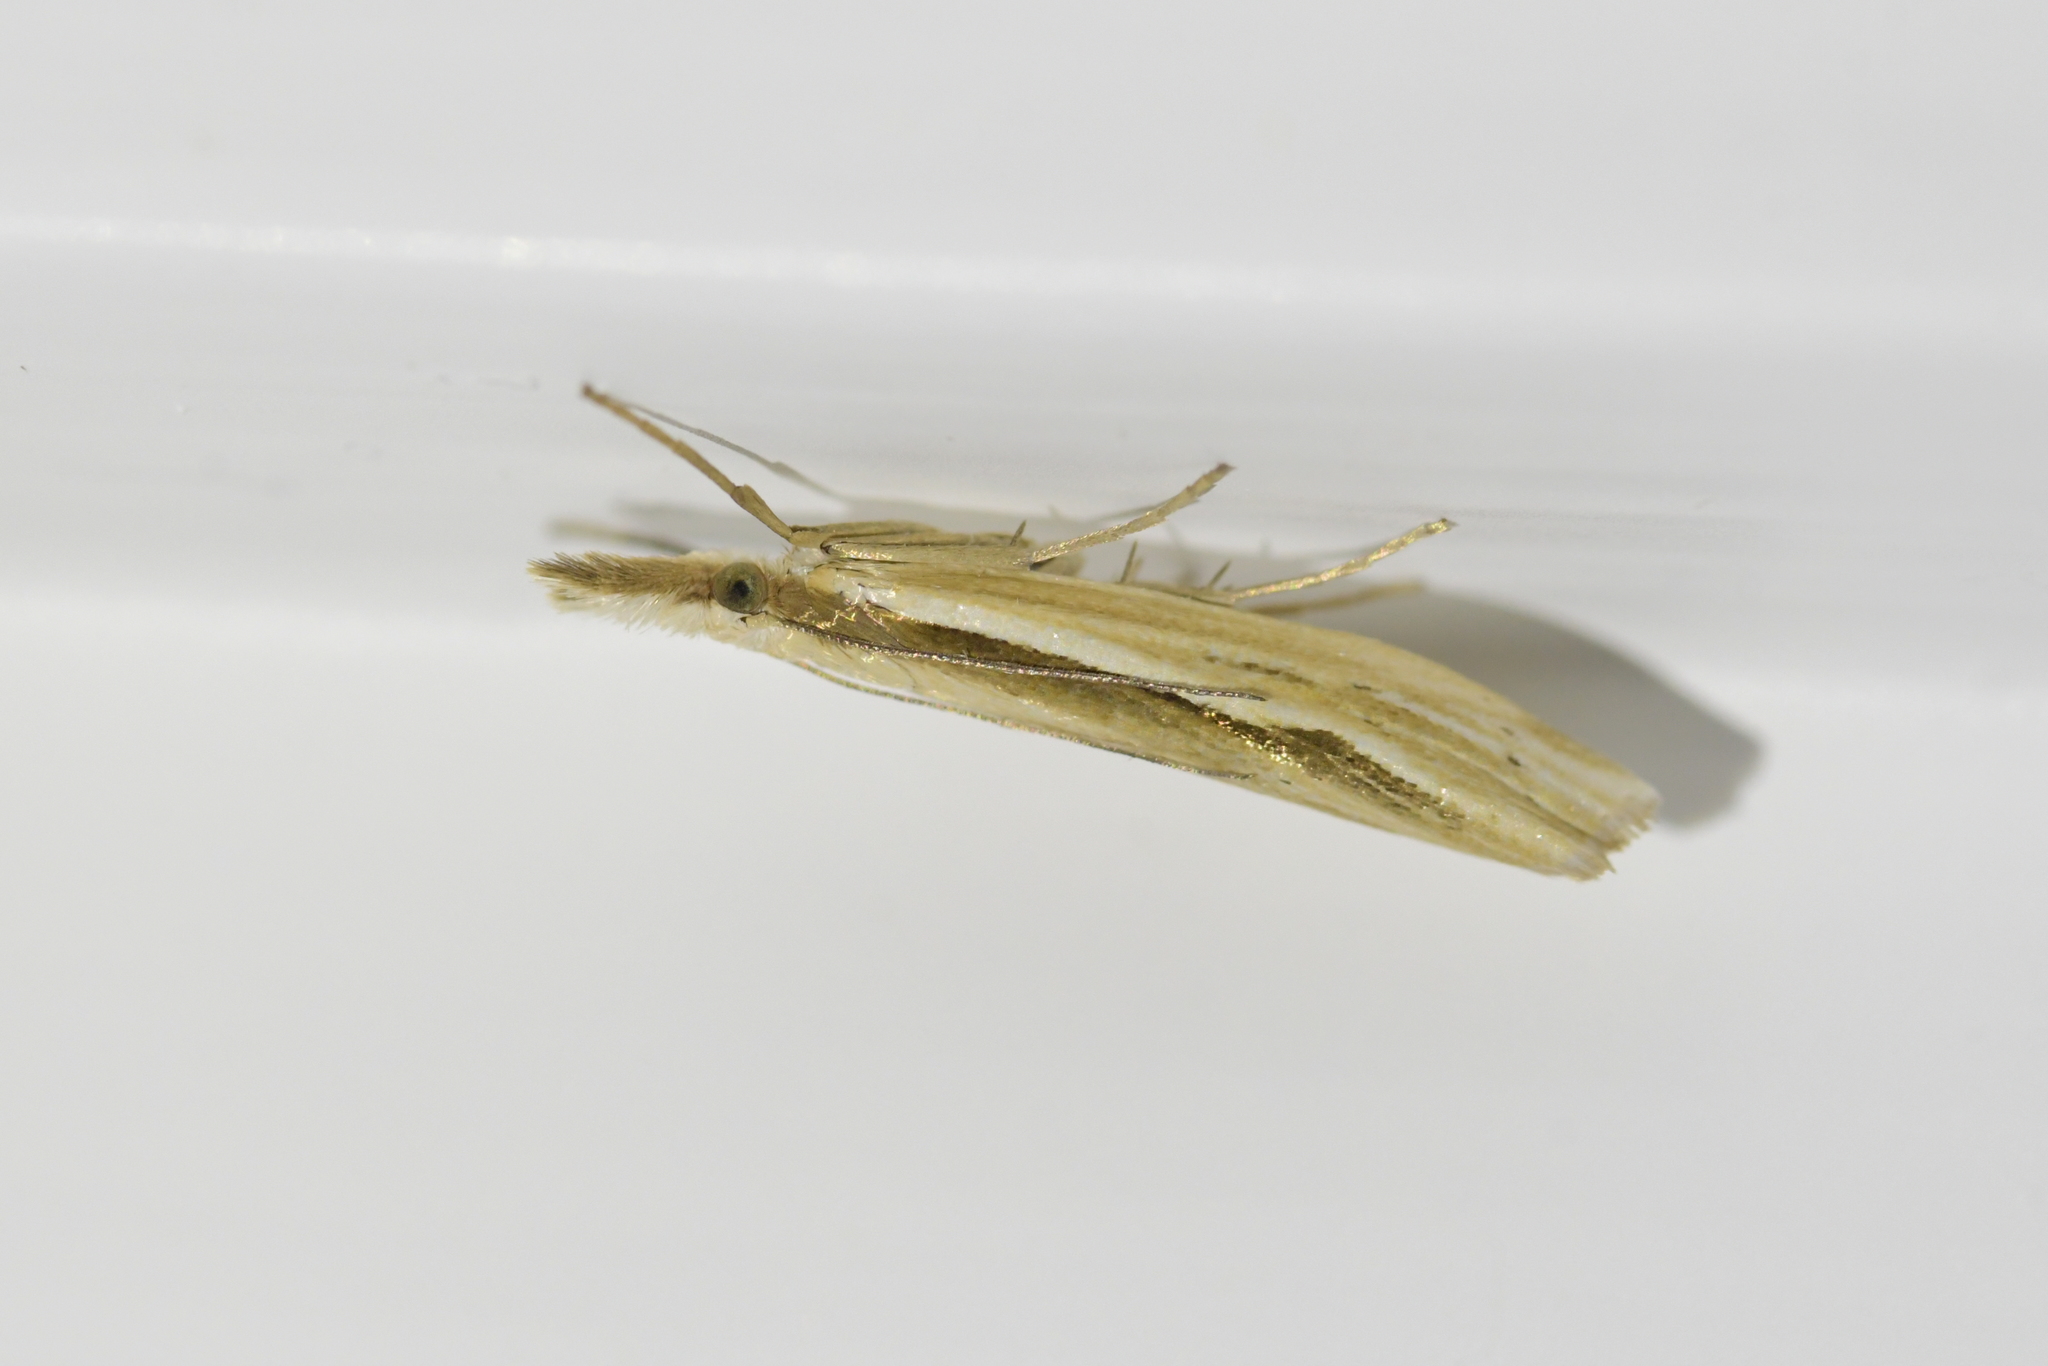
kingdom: Animalia
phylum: Arthropoda
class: Insecta
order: Lepidoptera
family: Crambidae
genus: Orocrambus
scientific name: Orocrambus ramosellus
